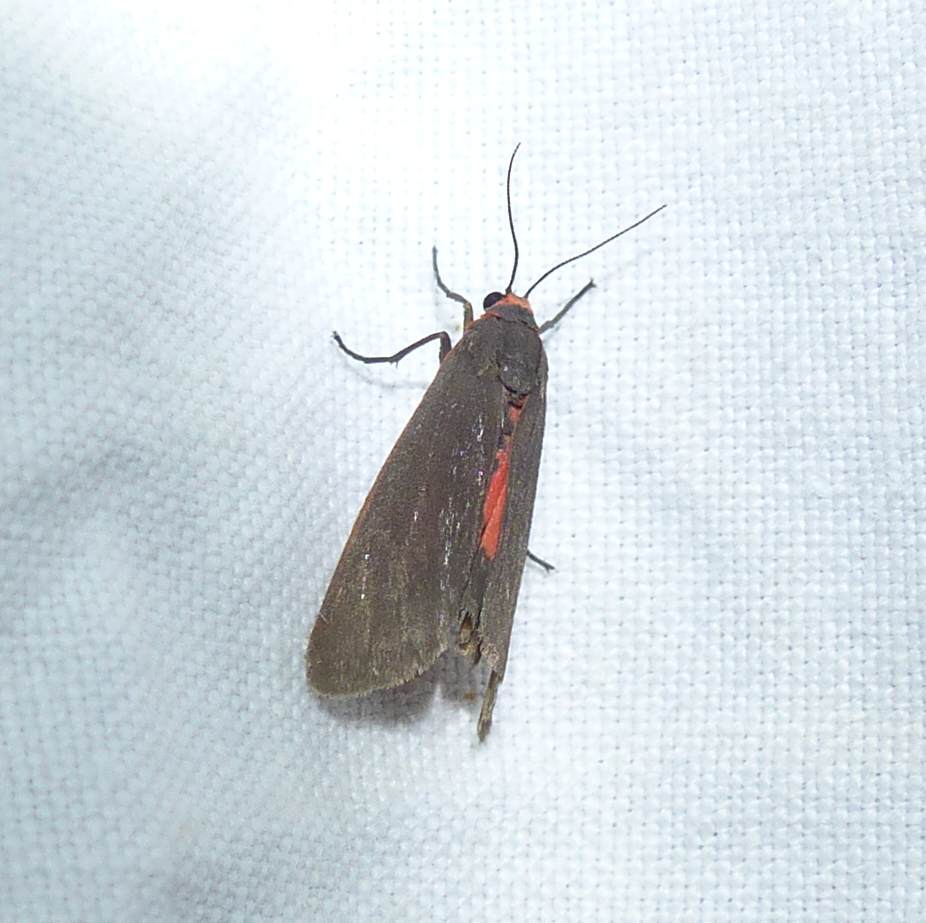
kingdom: Animalia
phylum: Arthropoda
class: Insecta
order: Lepidoptera
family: Erebidae
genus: Virbia
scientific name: Virbia laeta
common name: Joyful holomelina moth
